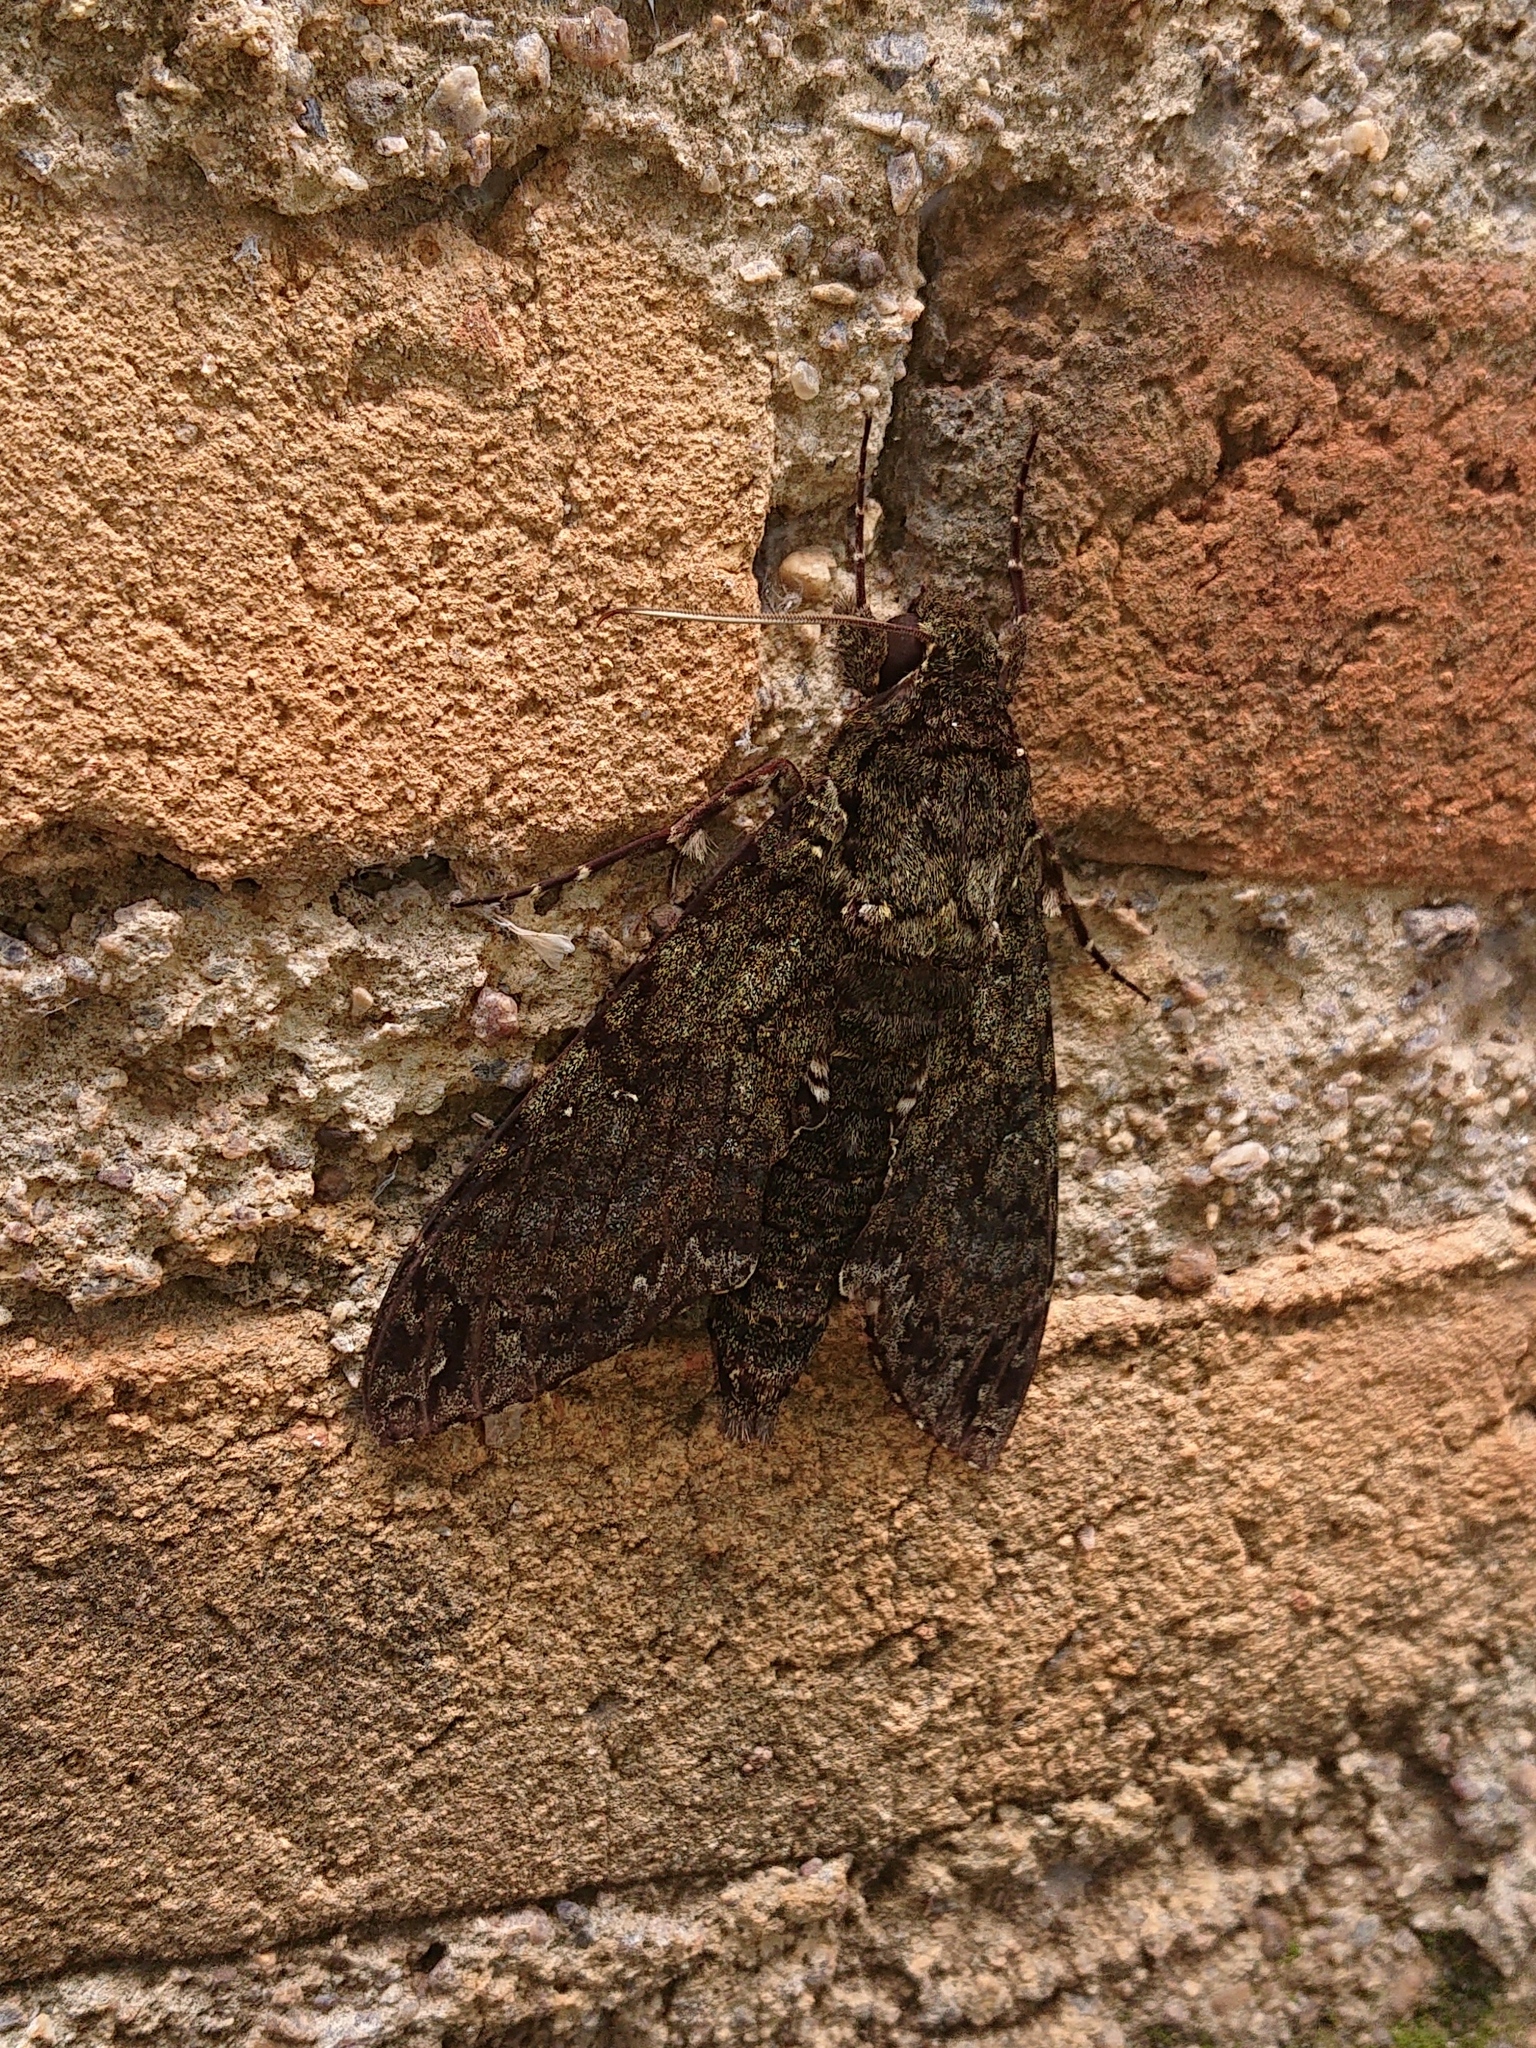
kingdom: Animalia
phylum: Arthropoda
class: Insecta
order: Lepidoptera
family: Sphingidae
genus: Cocytius
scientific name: Cocytius duponchel
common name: Duponchel's sphinx
